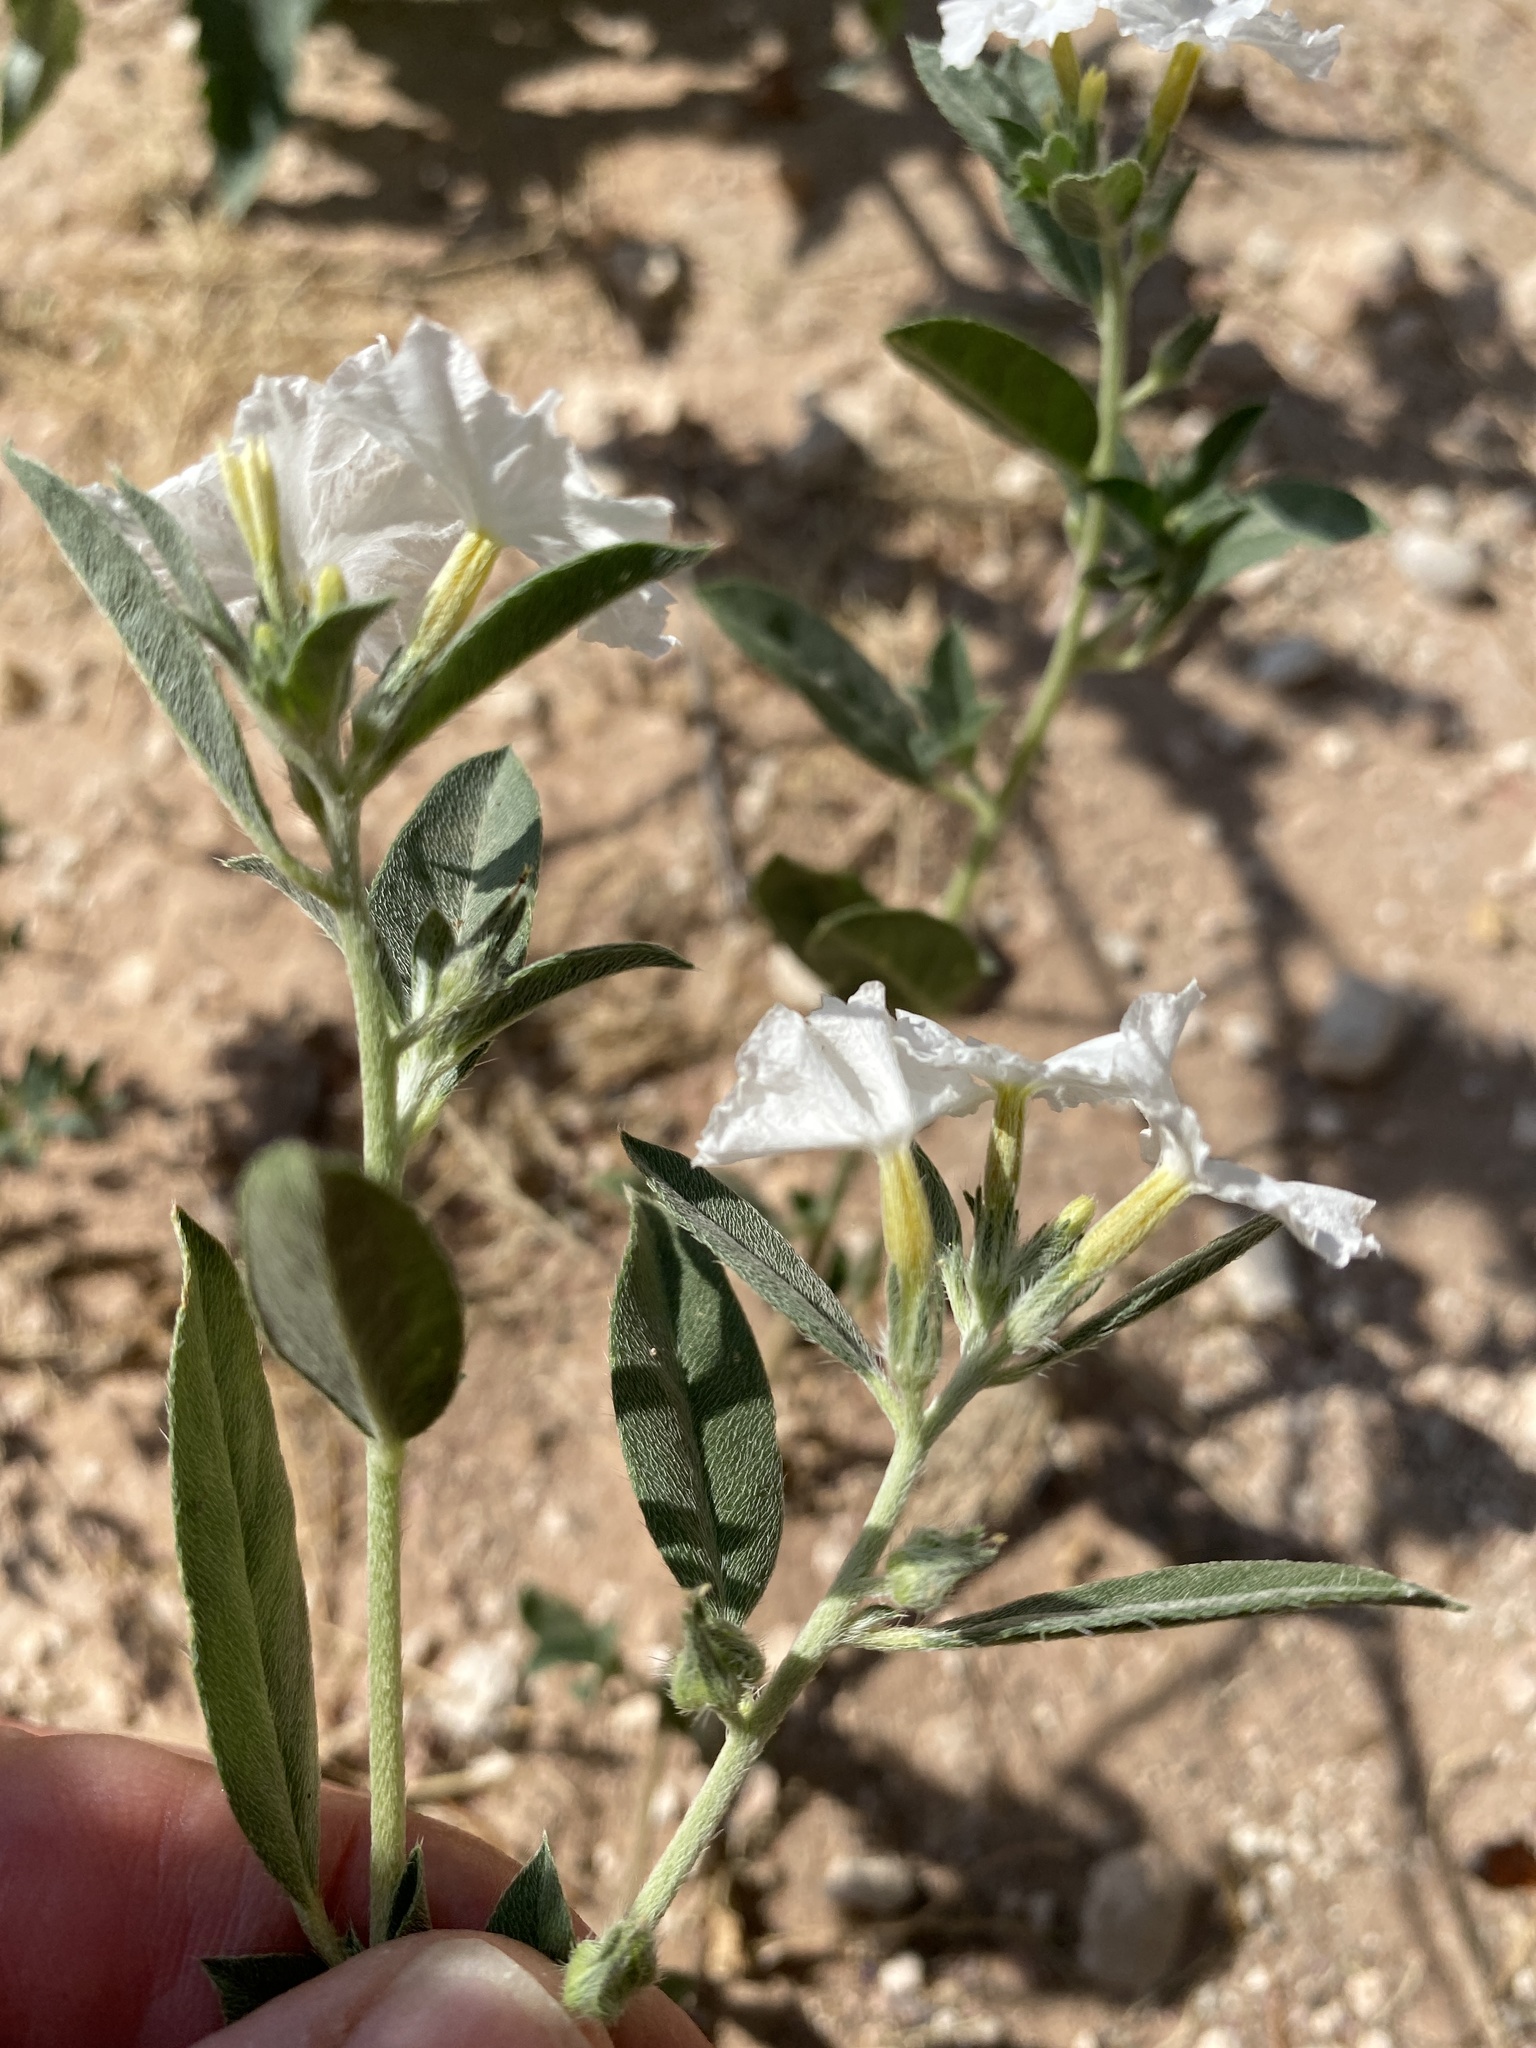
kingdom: Plantae
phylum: Tracheophyta
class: Magnoliopsida
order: Boraginales
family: Heliotropiaceae
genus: Euploca
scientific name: Euploca convolvulacea
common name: Bindweed heliotrope
